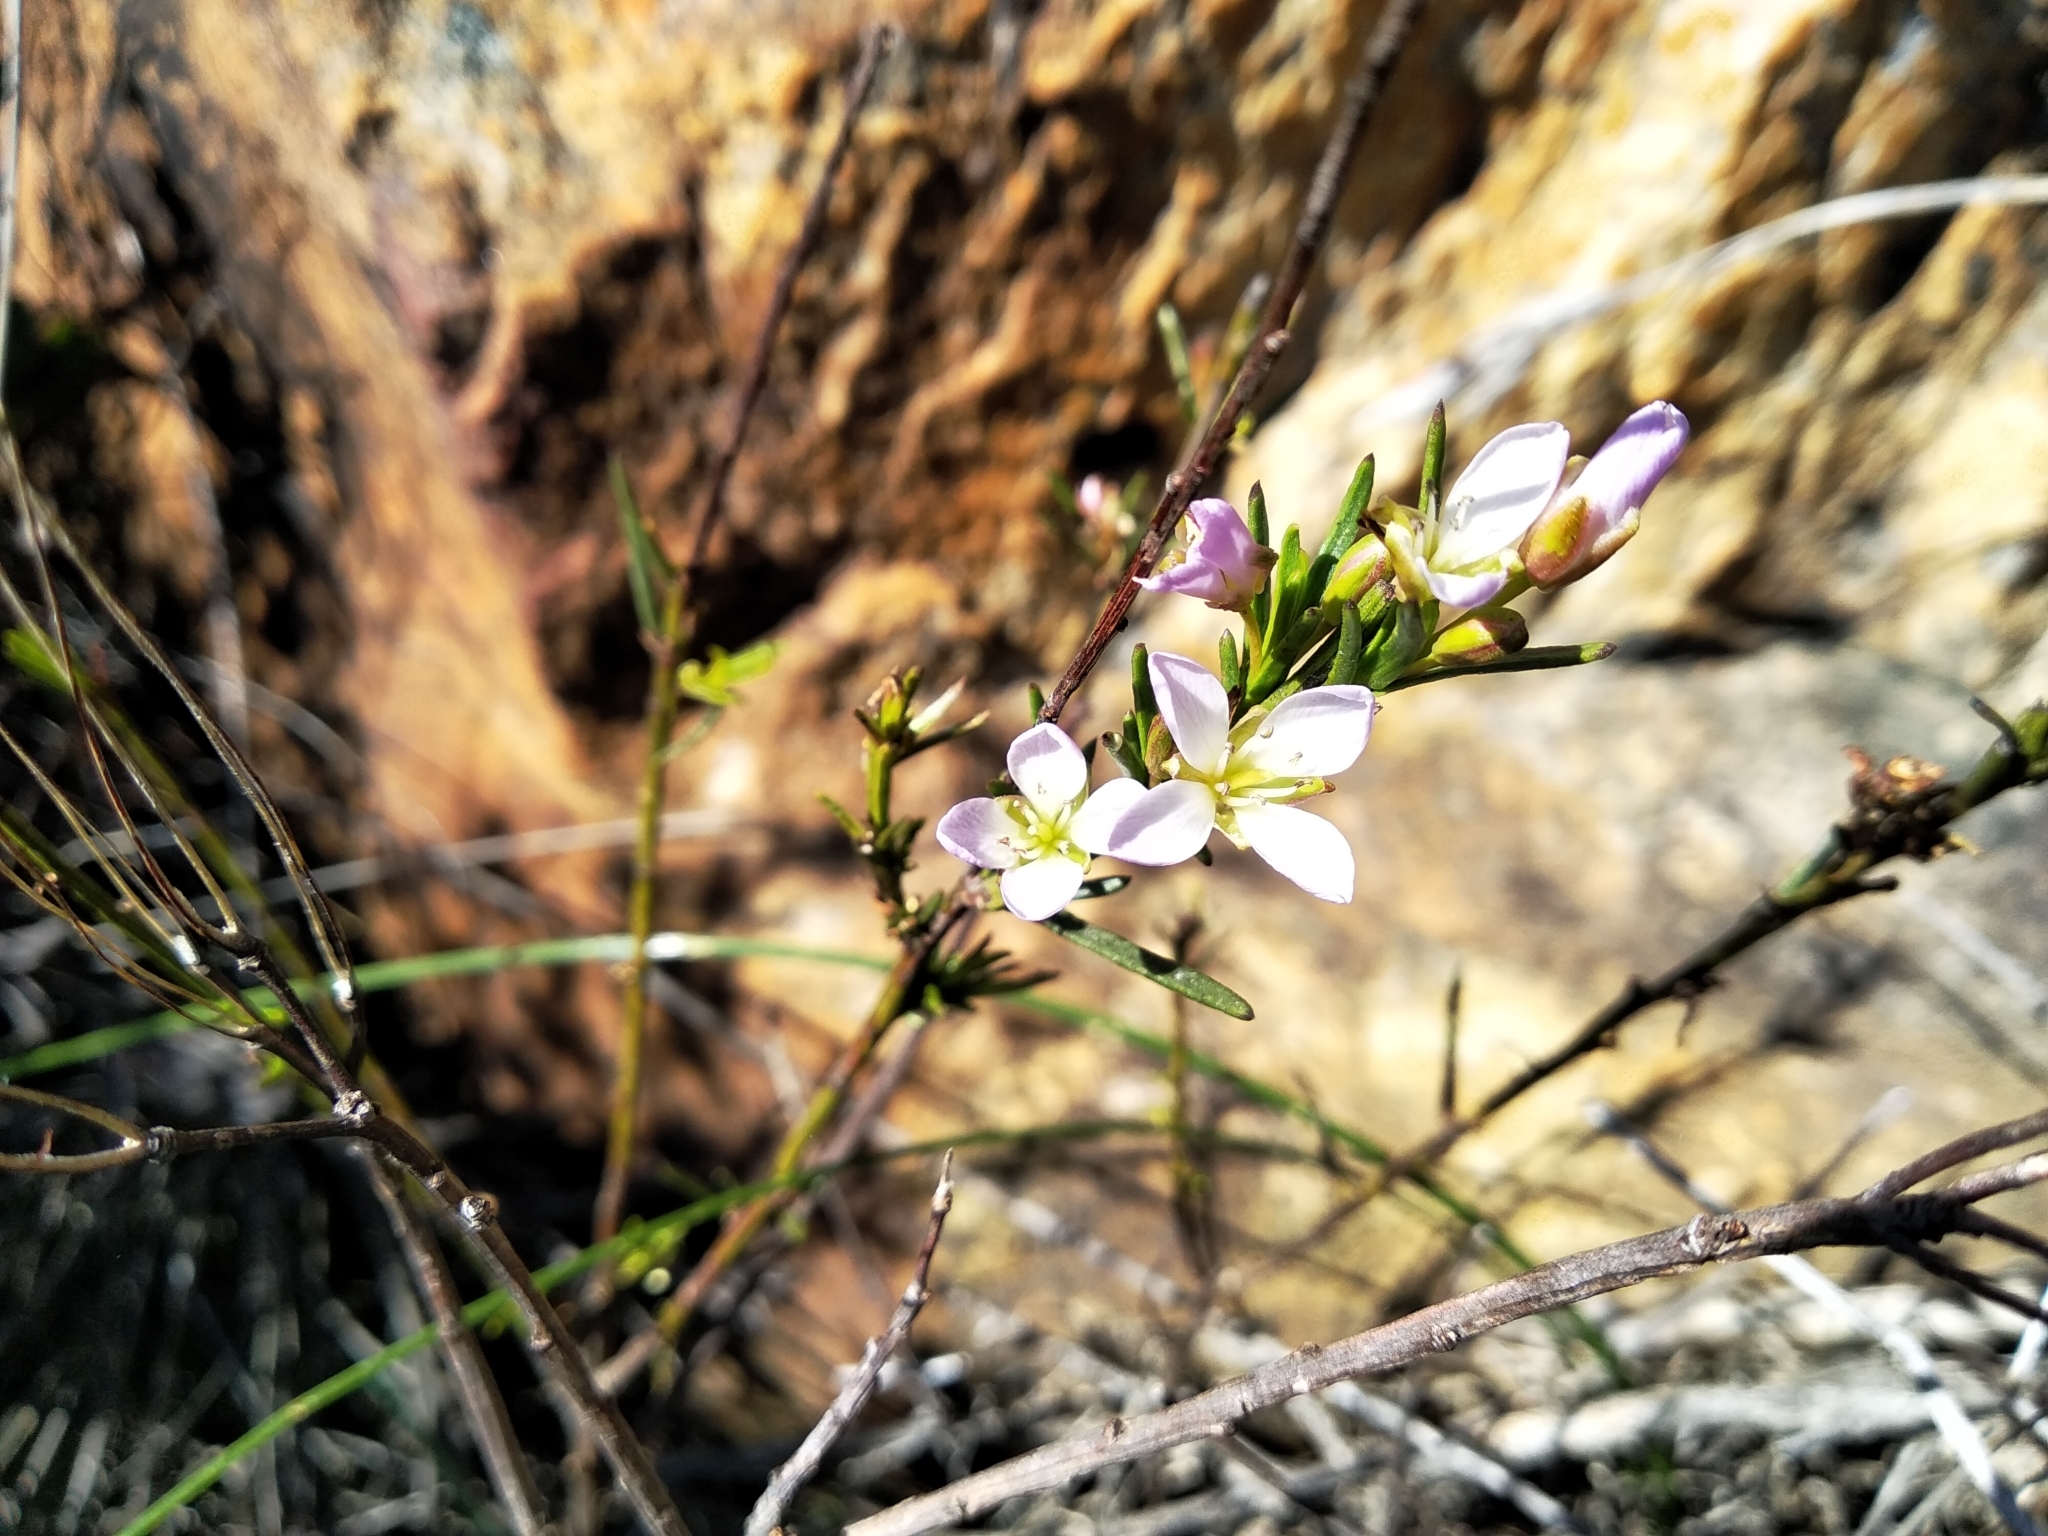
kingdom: Plantae
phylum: Tracheophyta
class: Magnoliopsida
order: Brassicales
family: Brassicaceae
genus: Heliophila
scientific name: Heliophila scoparia
